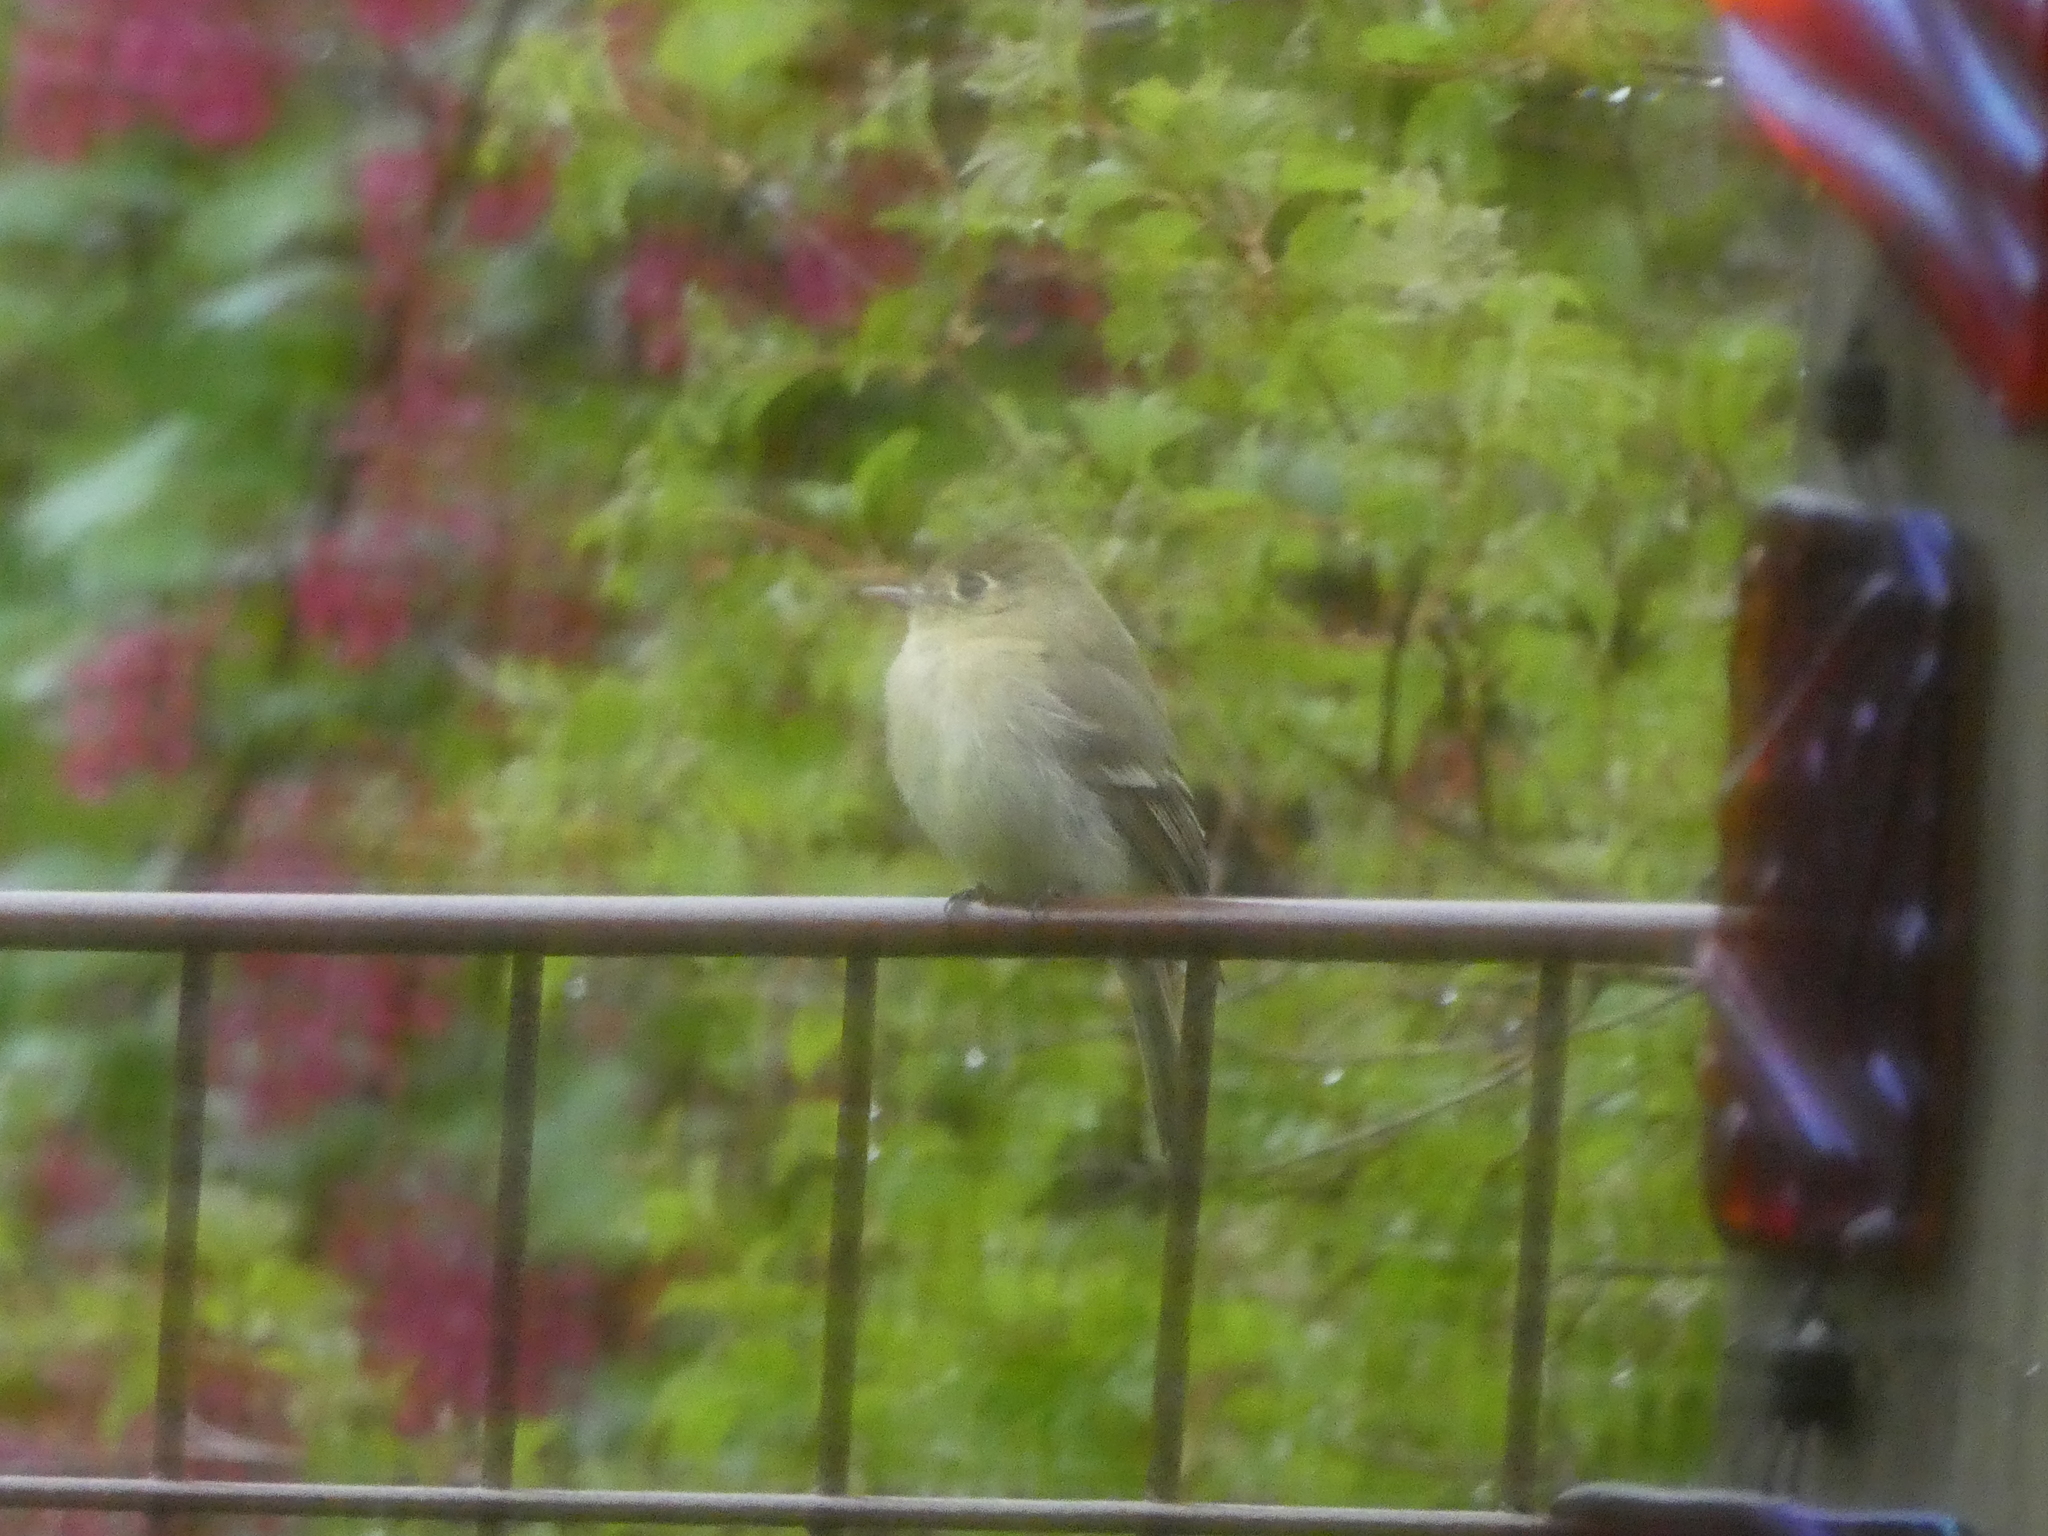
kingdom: Animalia
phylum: Chordata
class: Aves
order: Passeriformes
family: Tyrannidae
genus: Empidonax
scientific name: Empidonax difficilis
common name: Pacific-slope flycatcher
